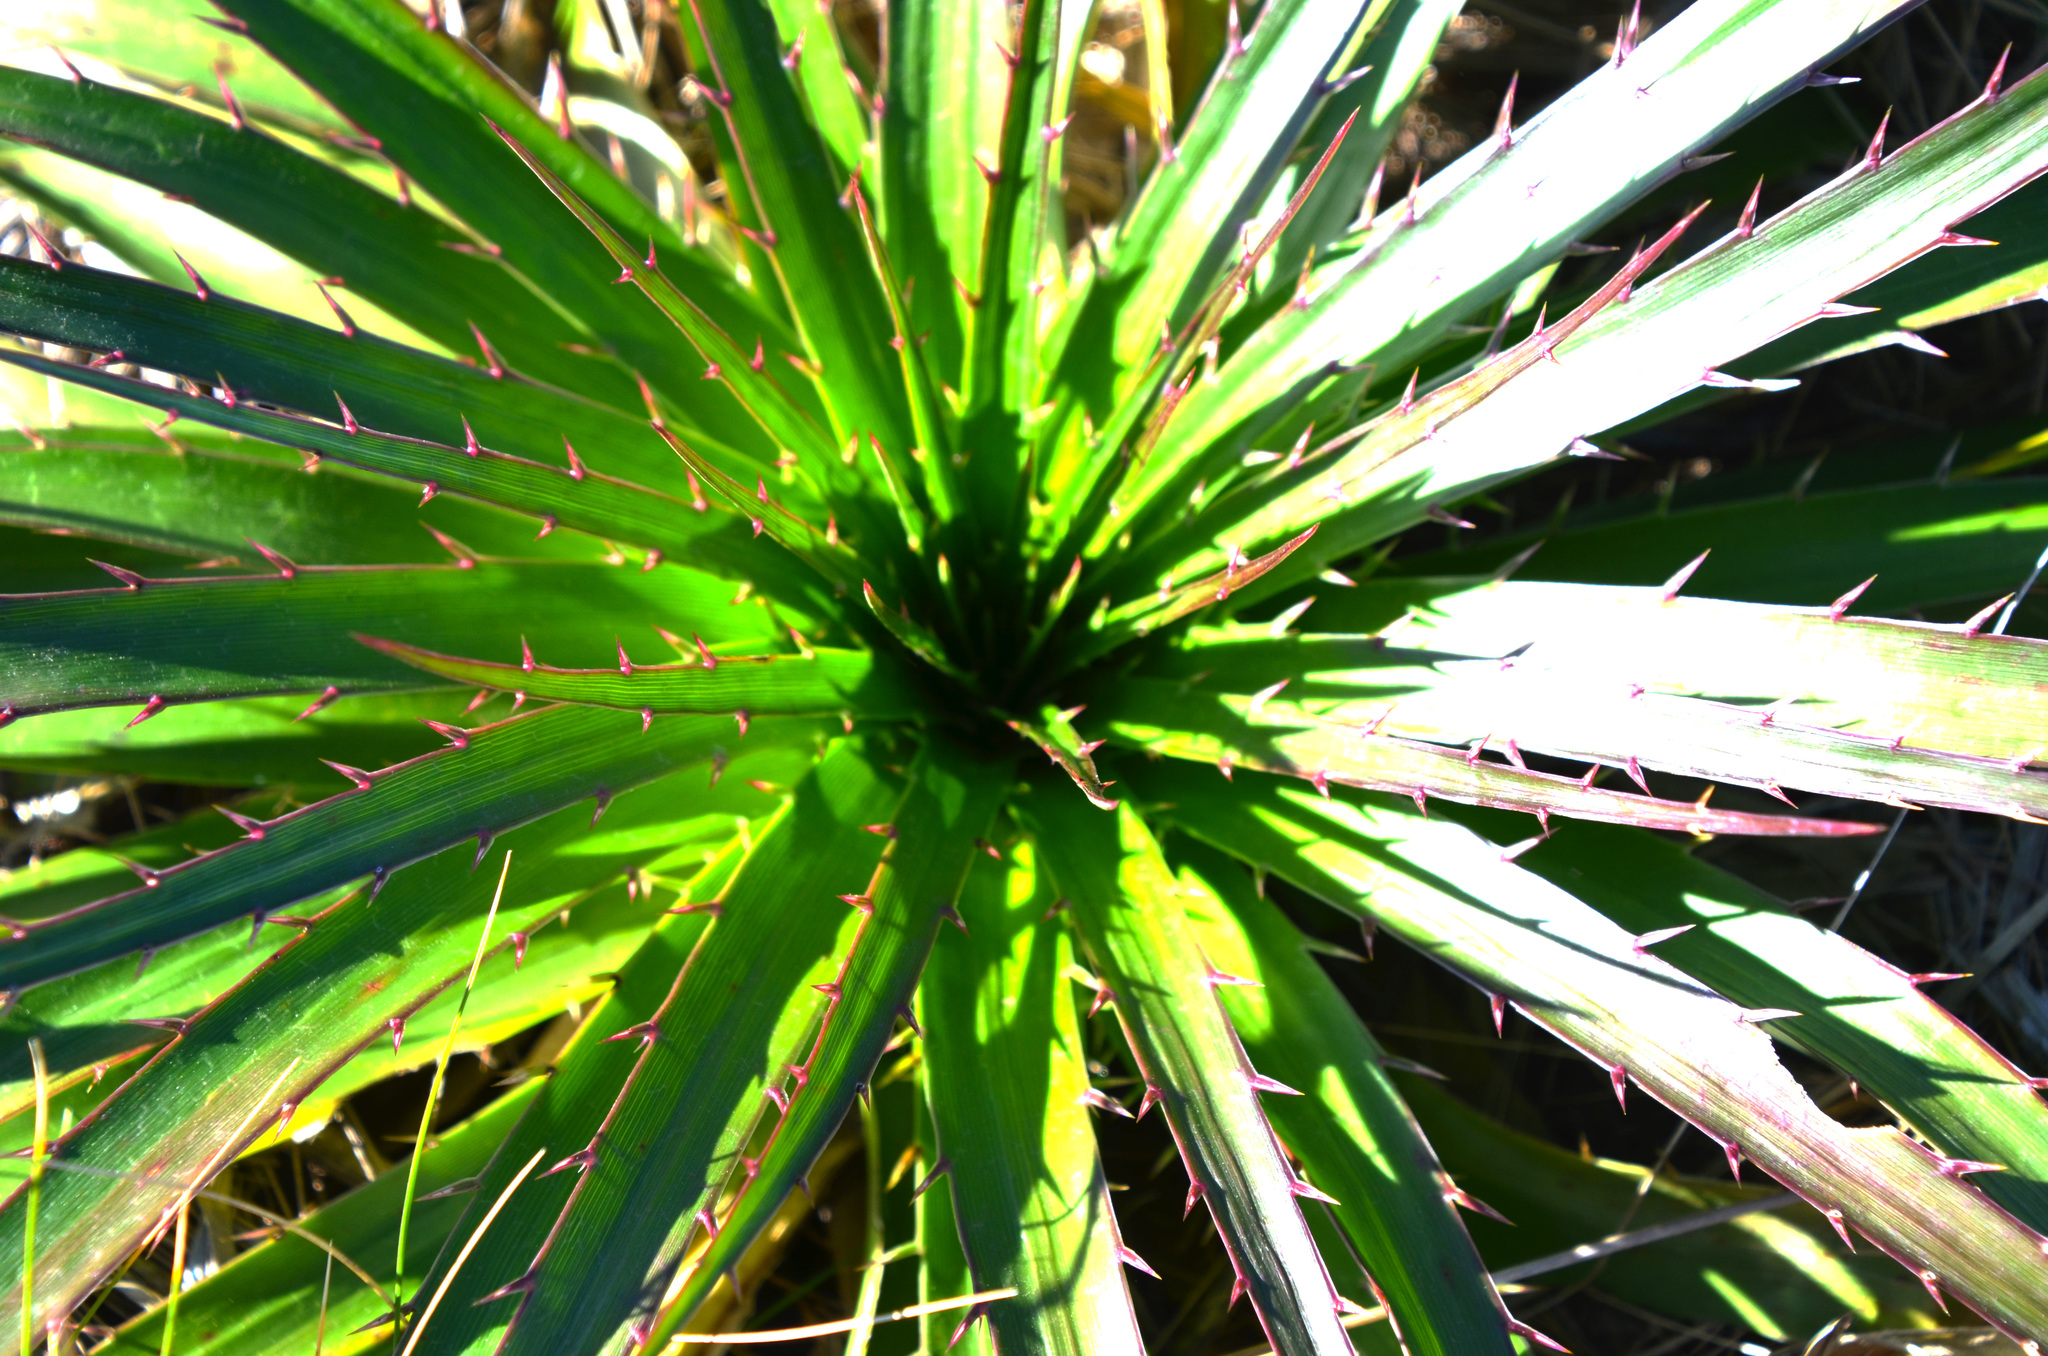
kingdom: Plantae
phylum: Tracheophyta
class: Magnoliopsida
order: Apiales
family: Apiaceae
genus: Eryngium
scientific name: Eryngium humboldtii
